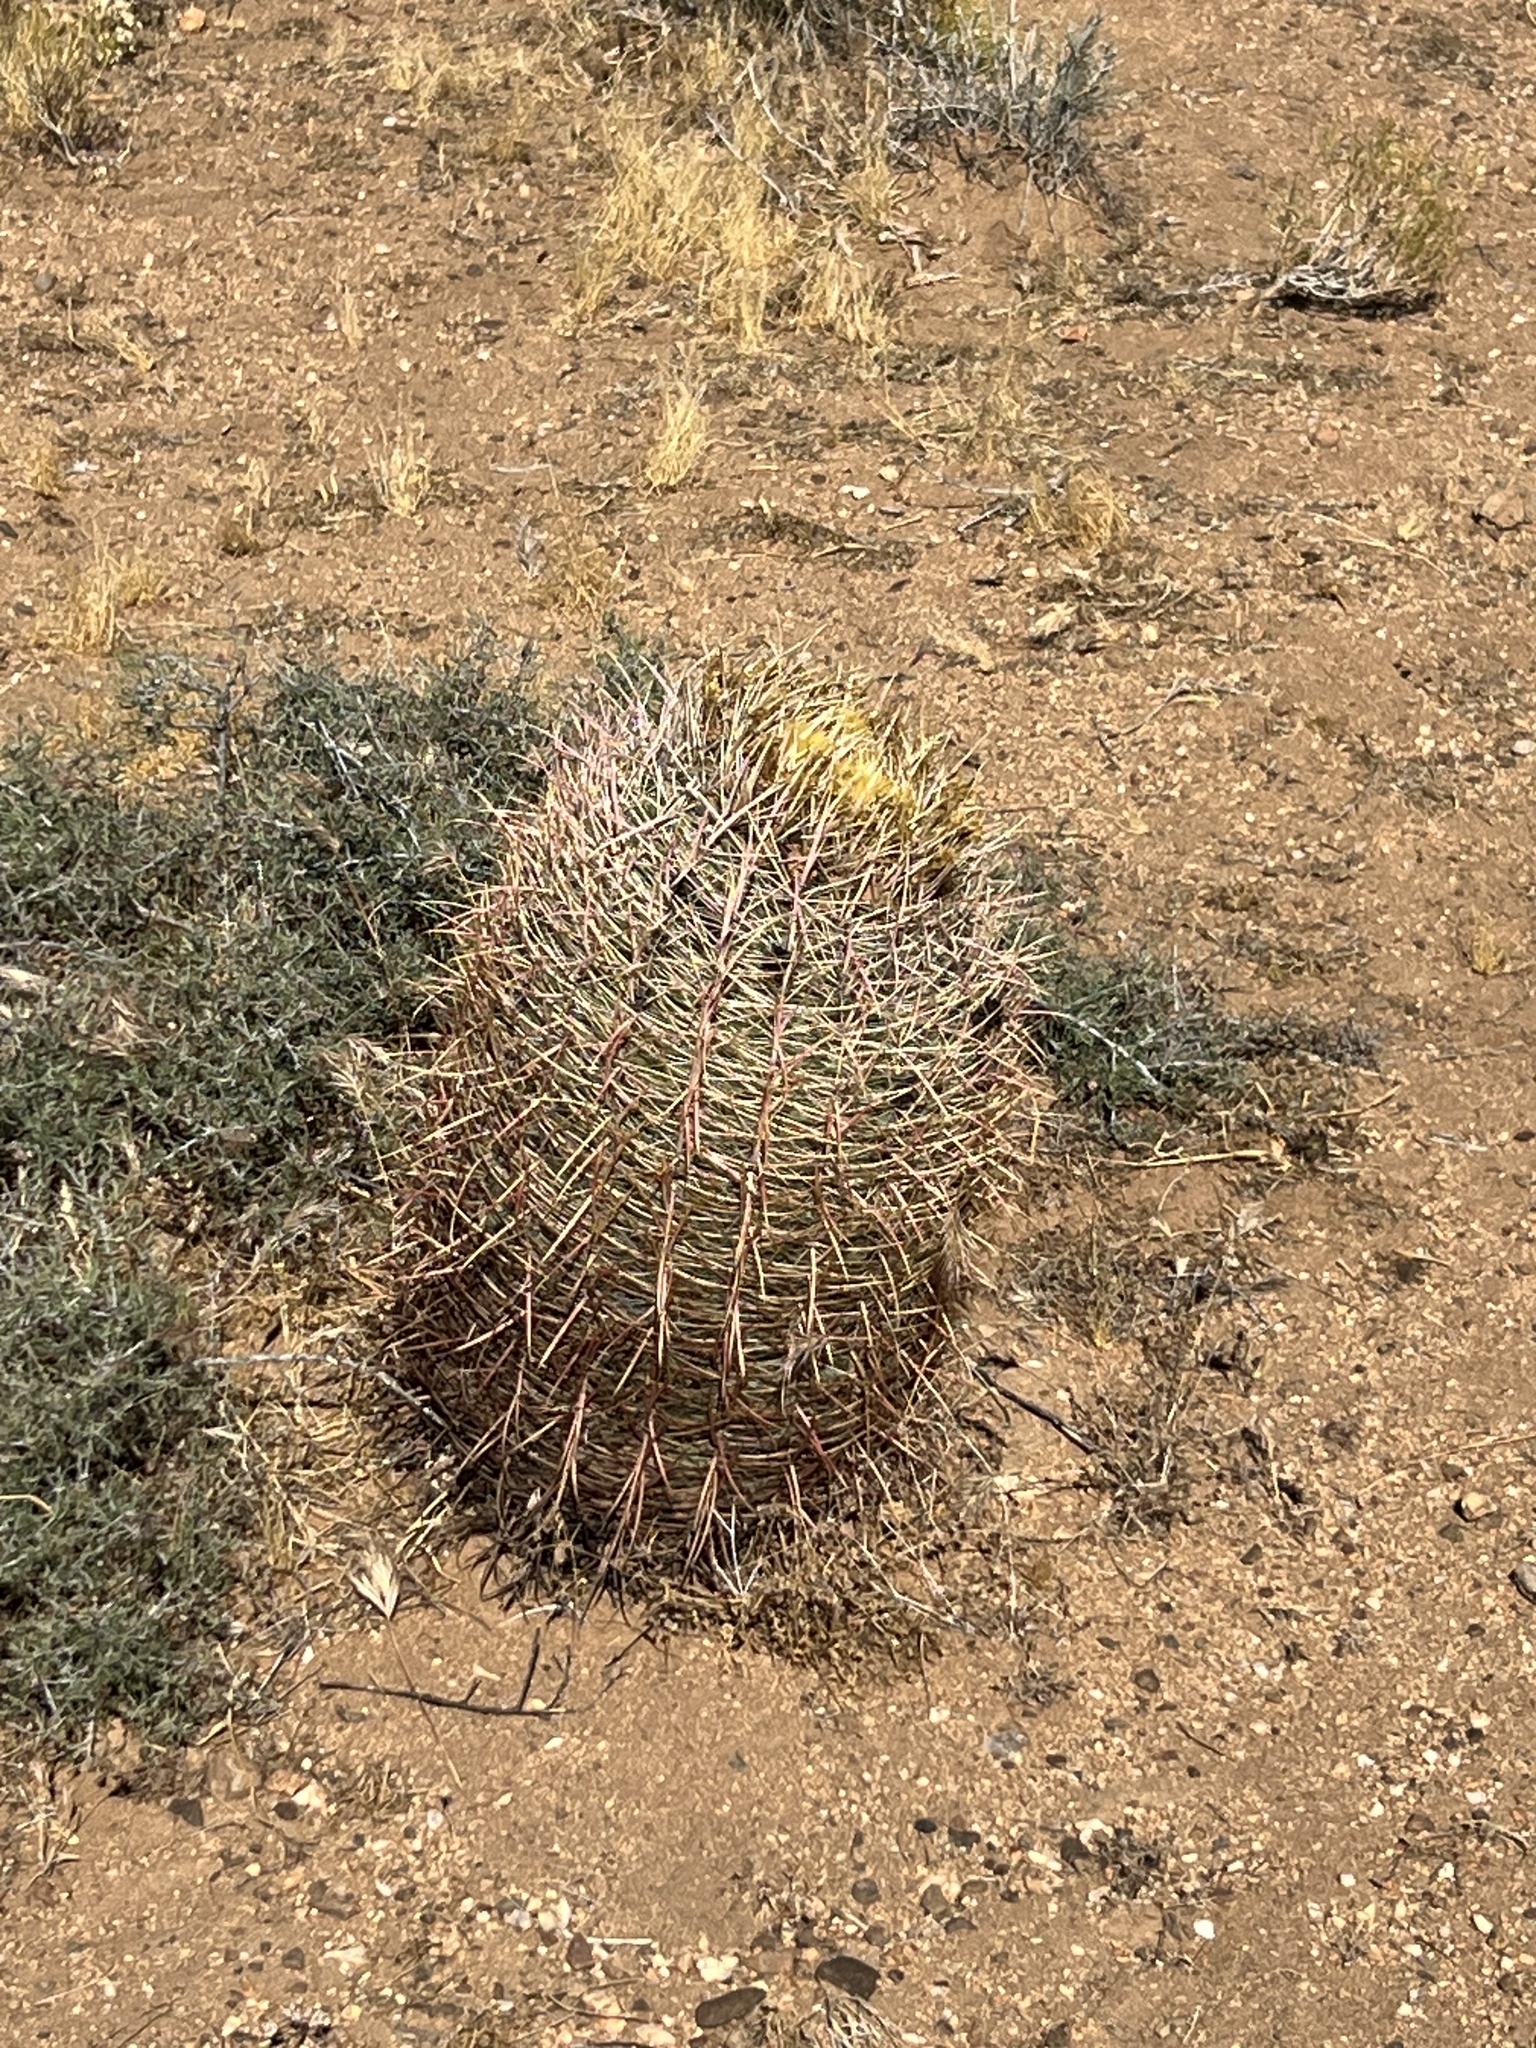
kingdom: Plantae
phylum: Tracheophyta
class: Magnoliopsida
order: Caryophyllales
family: Cactaceae
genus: Ferocactus
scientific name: Ferocactus cylindraceus
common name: California barrel cactus
